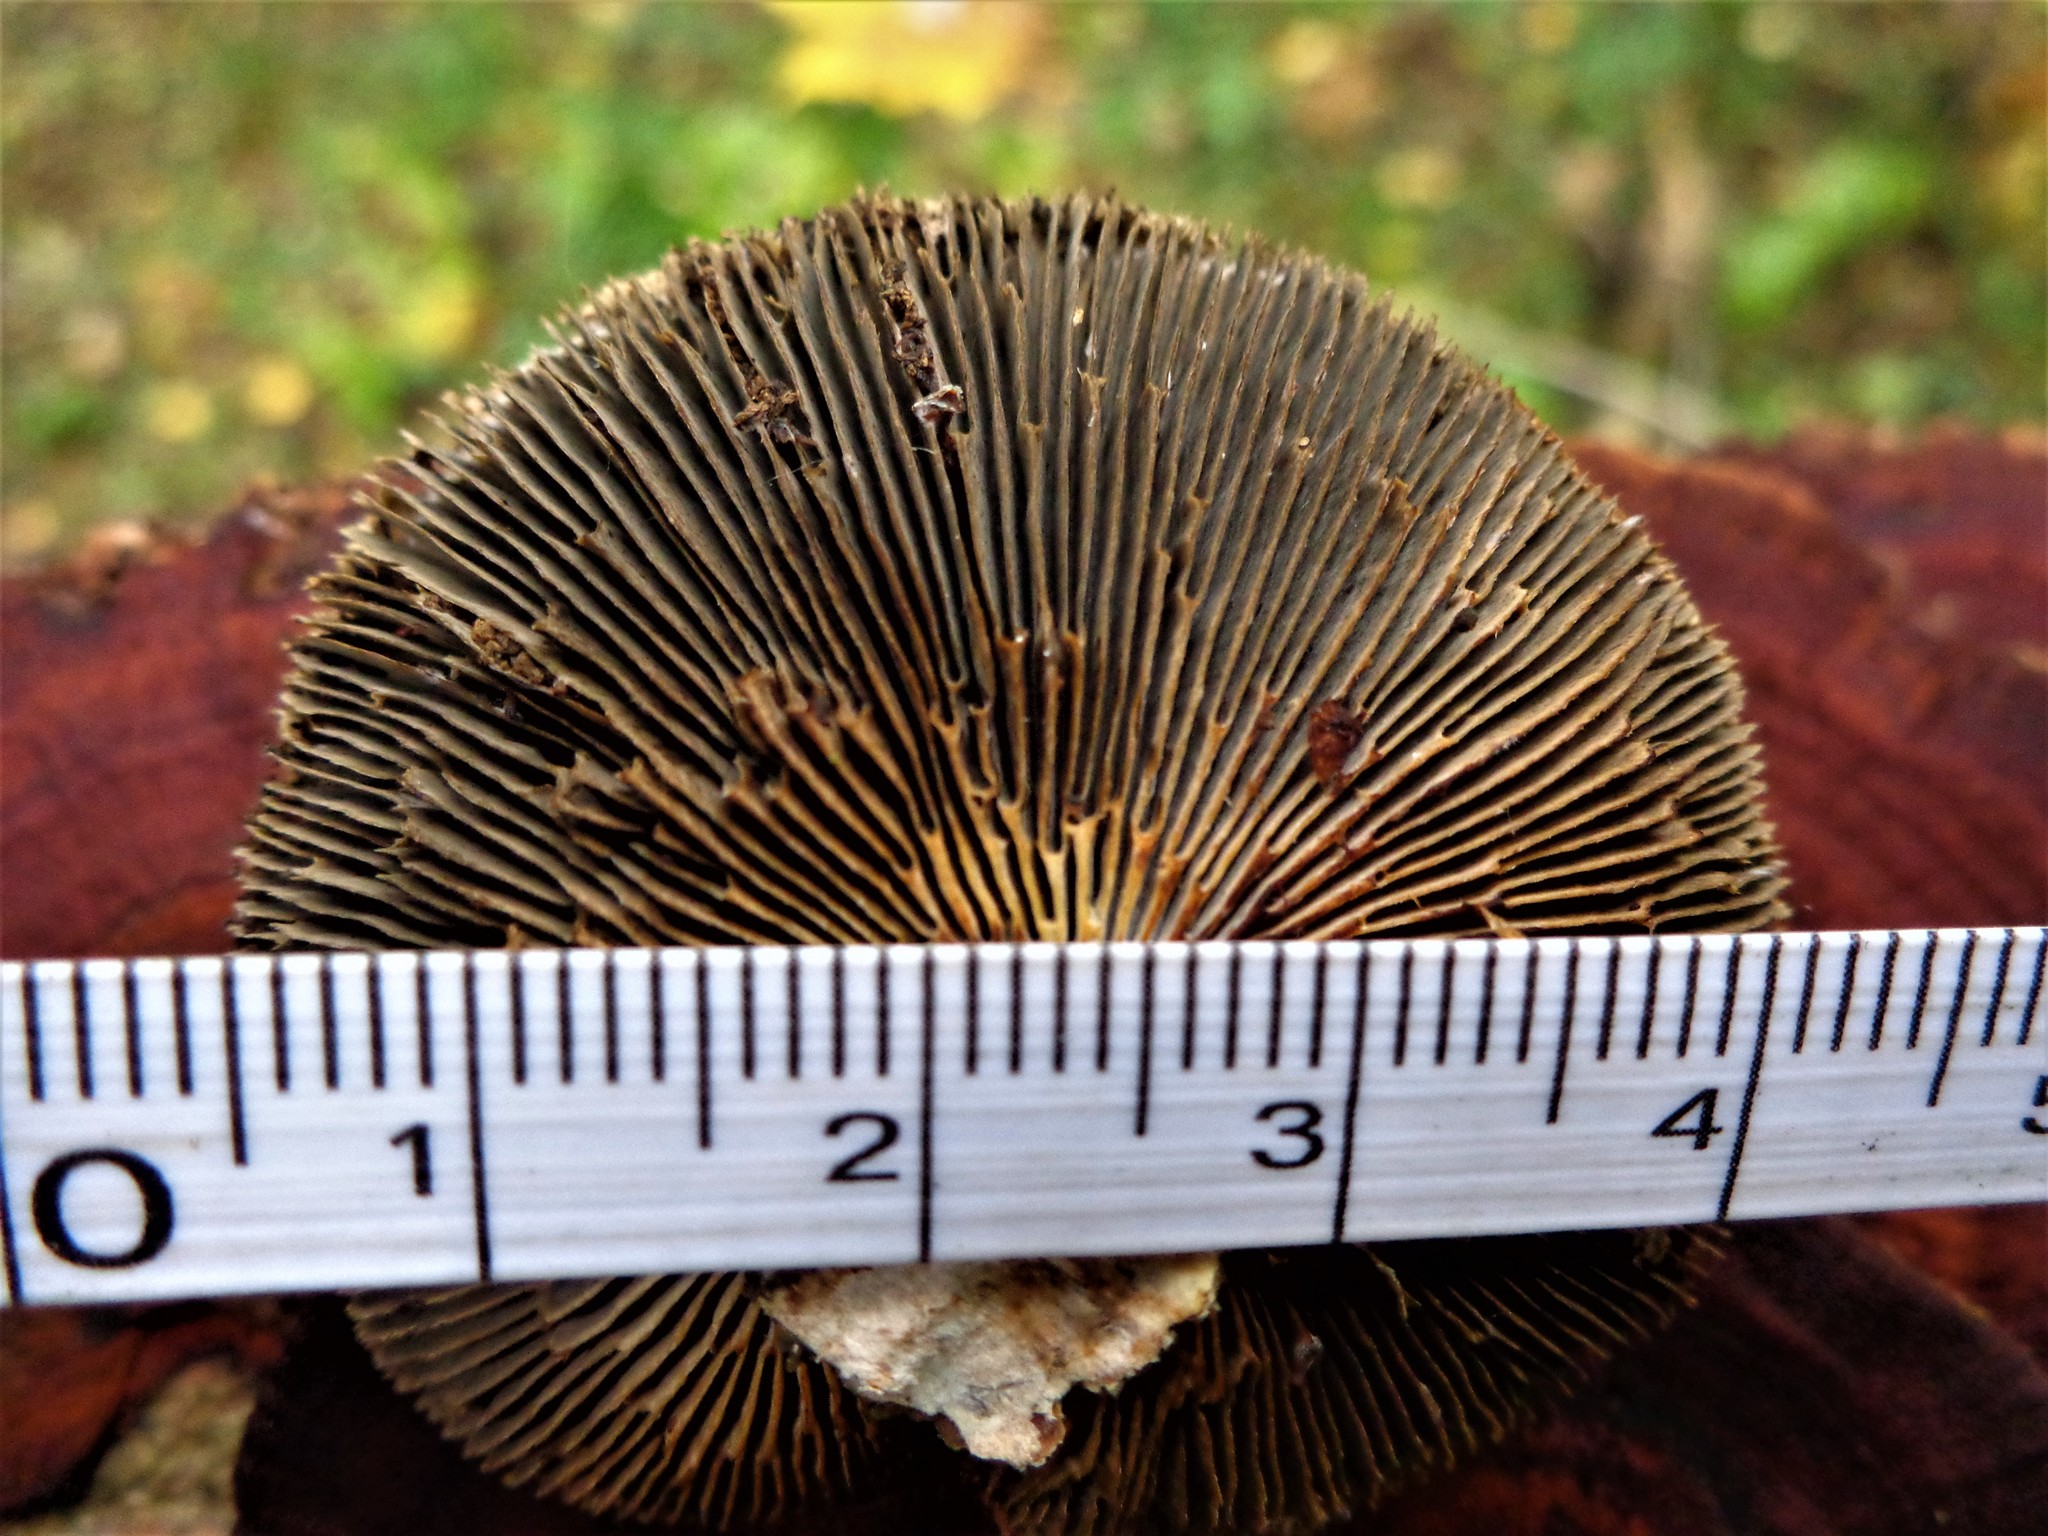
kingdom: Fungi
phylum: Basidiomycota
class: Agaricomycetes
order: Polyporales
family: Polyporaceae
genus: Daedaleopsis
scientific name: Daedaleopsis tricolor
